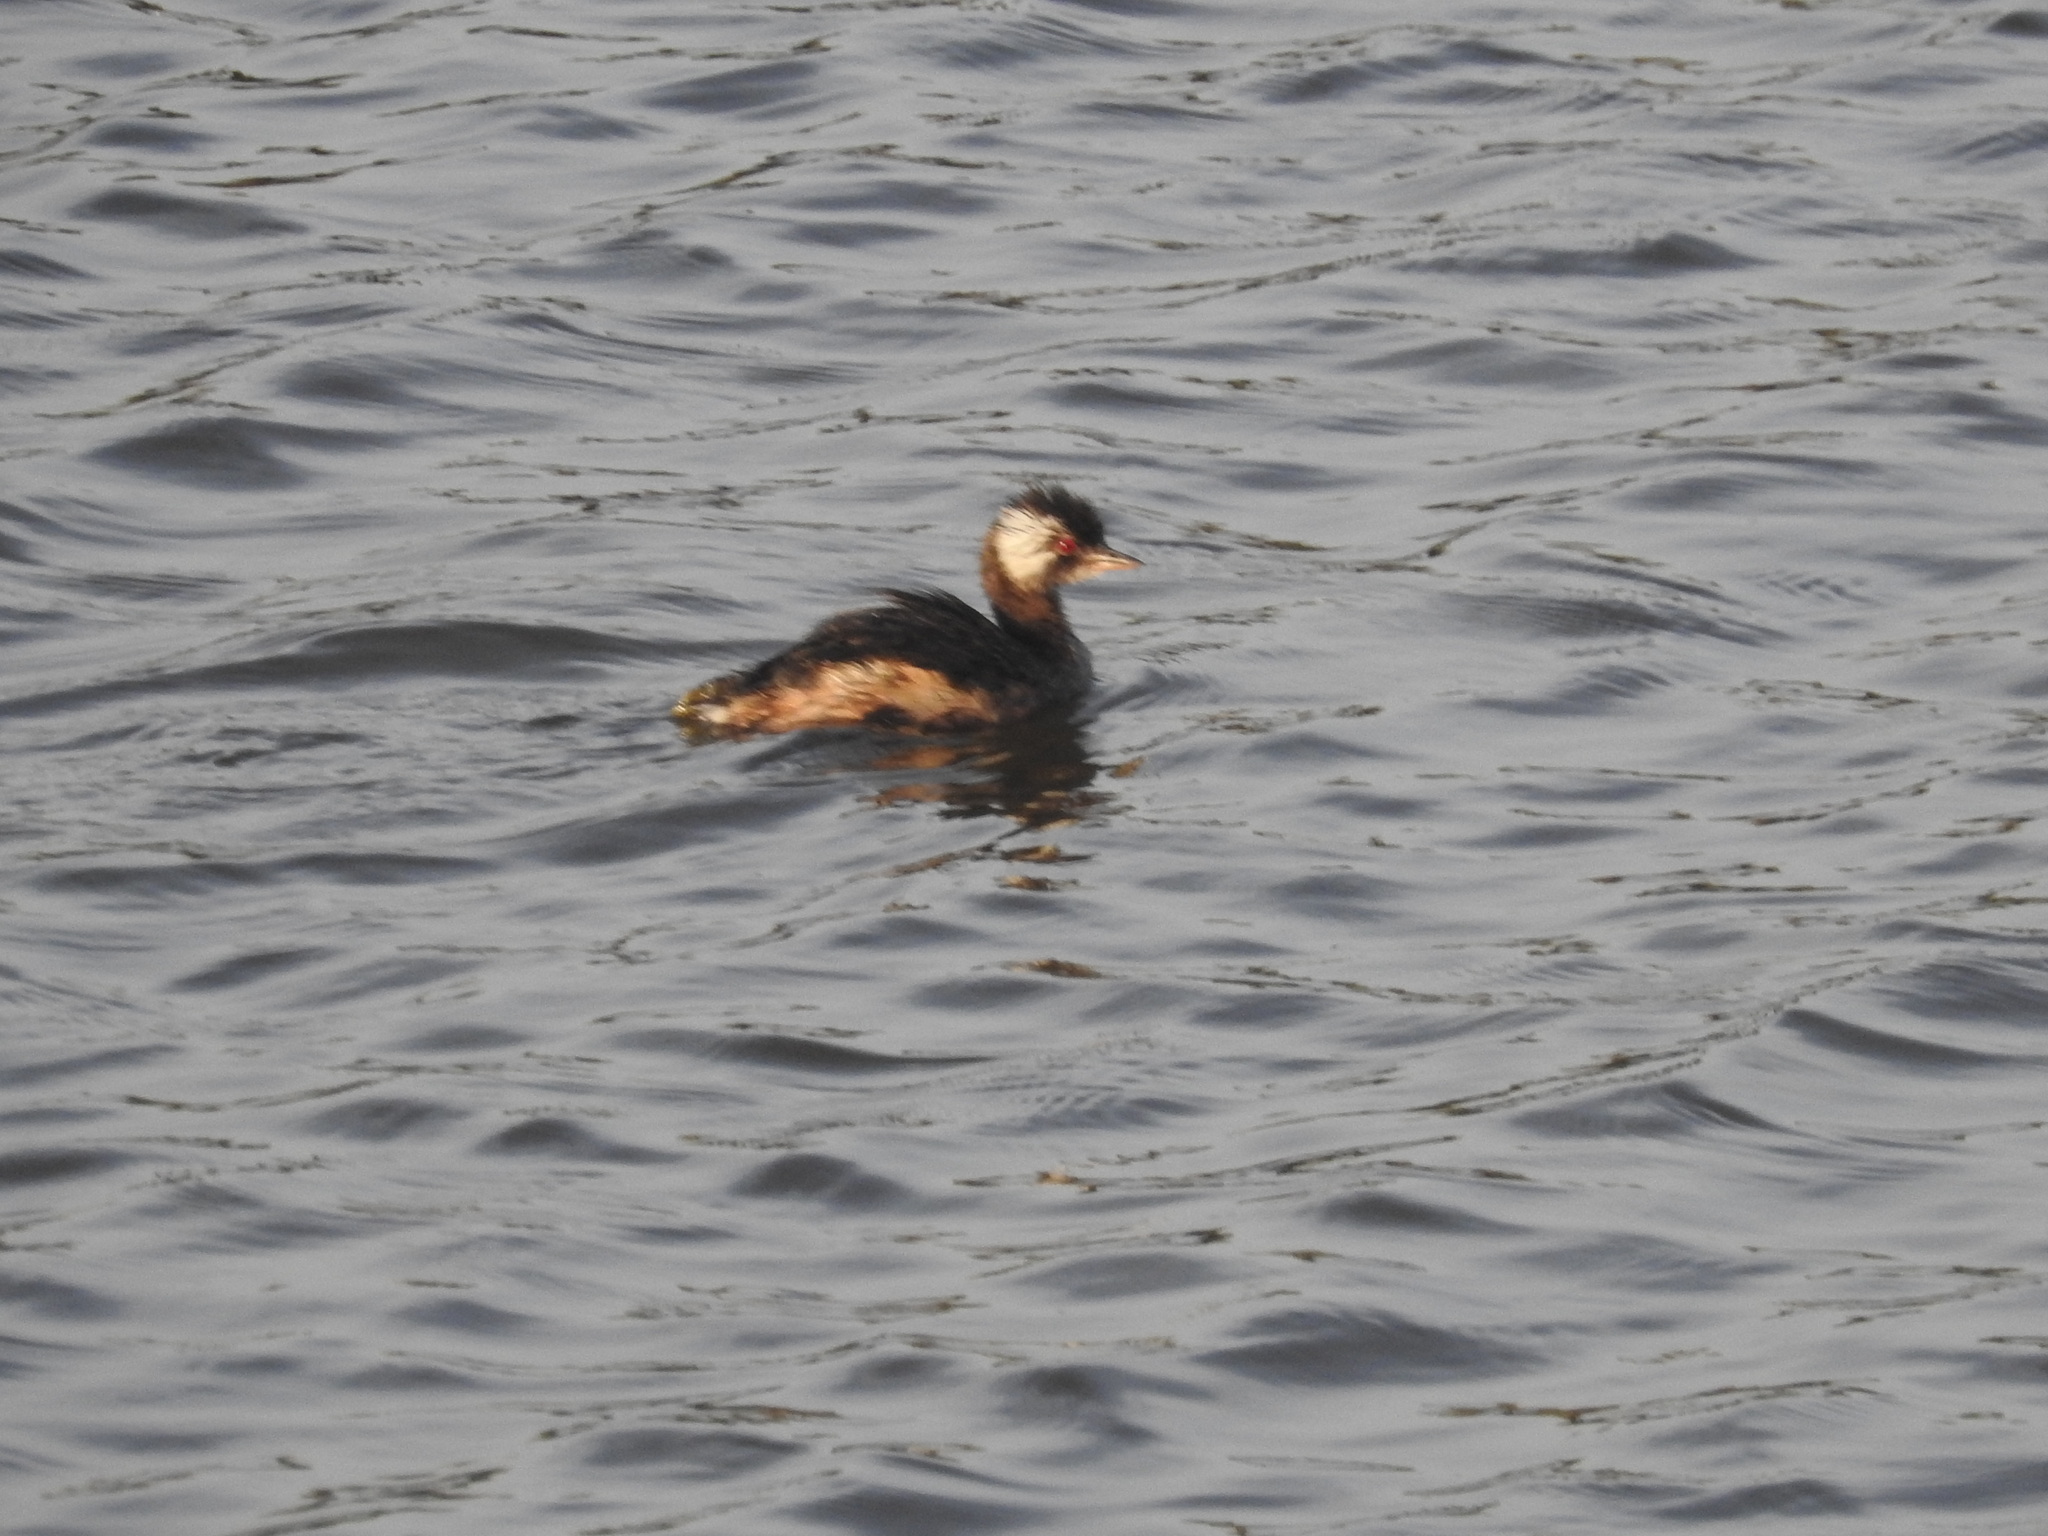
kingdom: Animalia
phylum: Chordata
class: Aves
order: Podicipediformes
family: Podicipedidae
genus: Rollandia
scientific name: Rollandia rolland
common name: White-tufted grebe
